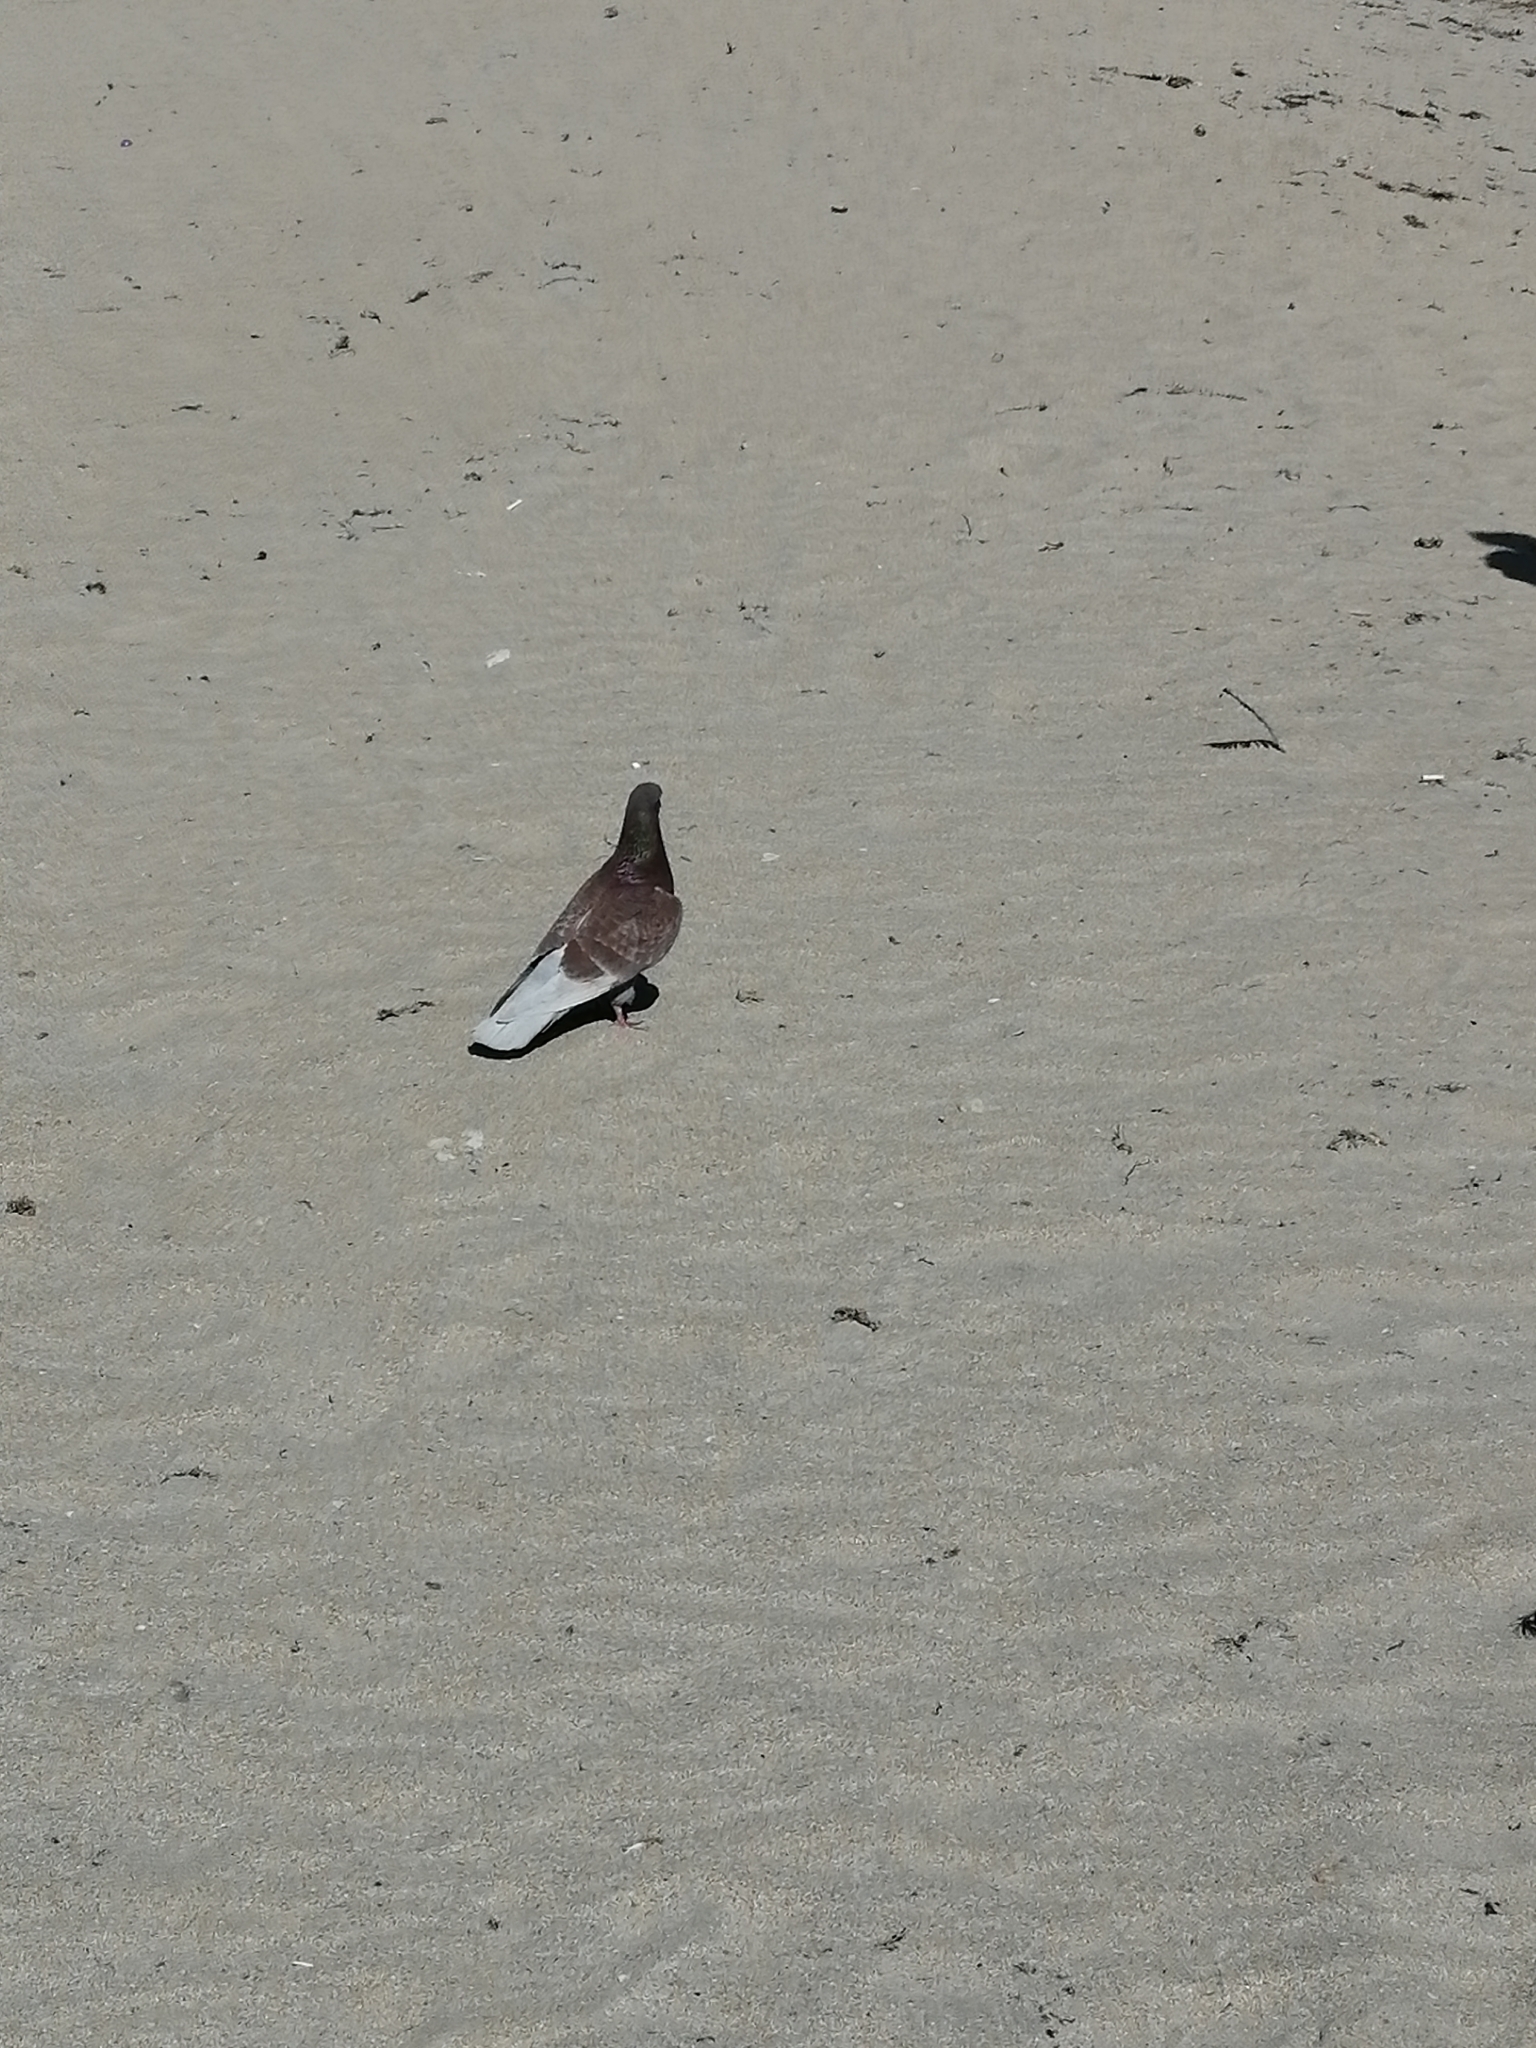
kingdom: Animalia
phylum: Chordata
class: Aves
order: Columbiformes
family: Columbidae
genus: Columba
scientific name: Columba livia
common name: Rock pigeon
